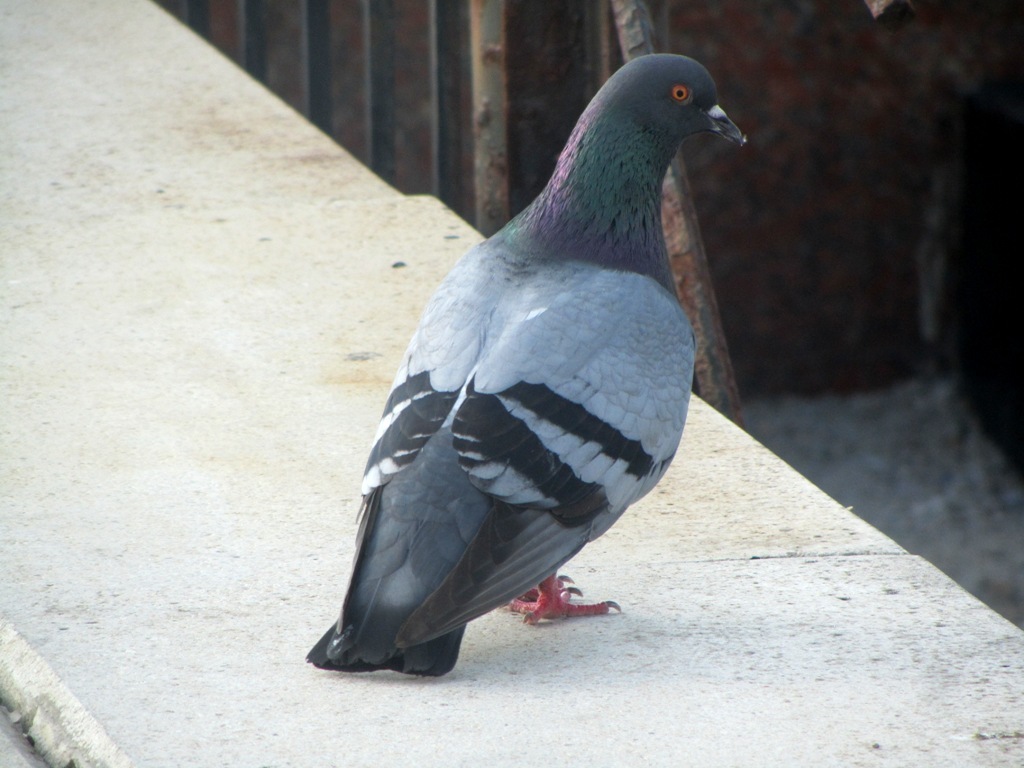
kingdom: Animalia
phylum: Chordata
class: Aves
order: Columbiformes
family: Columbidae
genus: Columba
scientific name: Columba livia
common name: Rock pigeon
